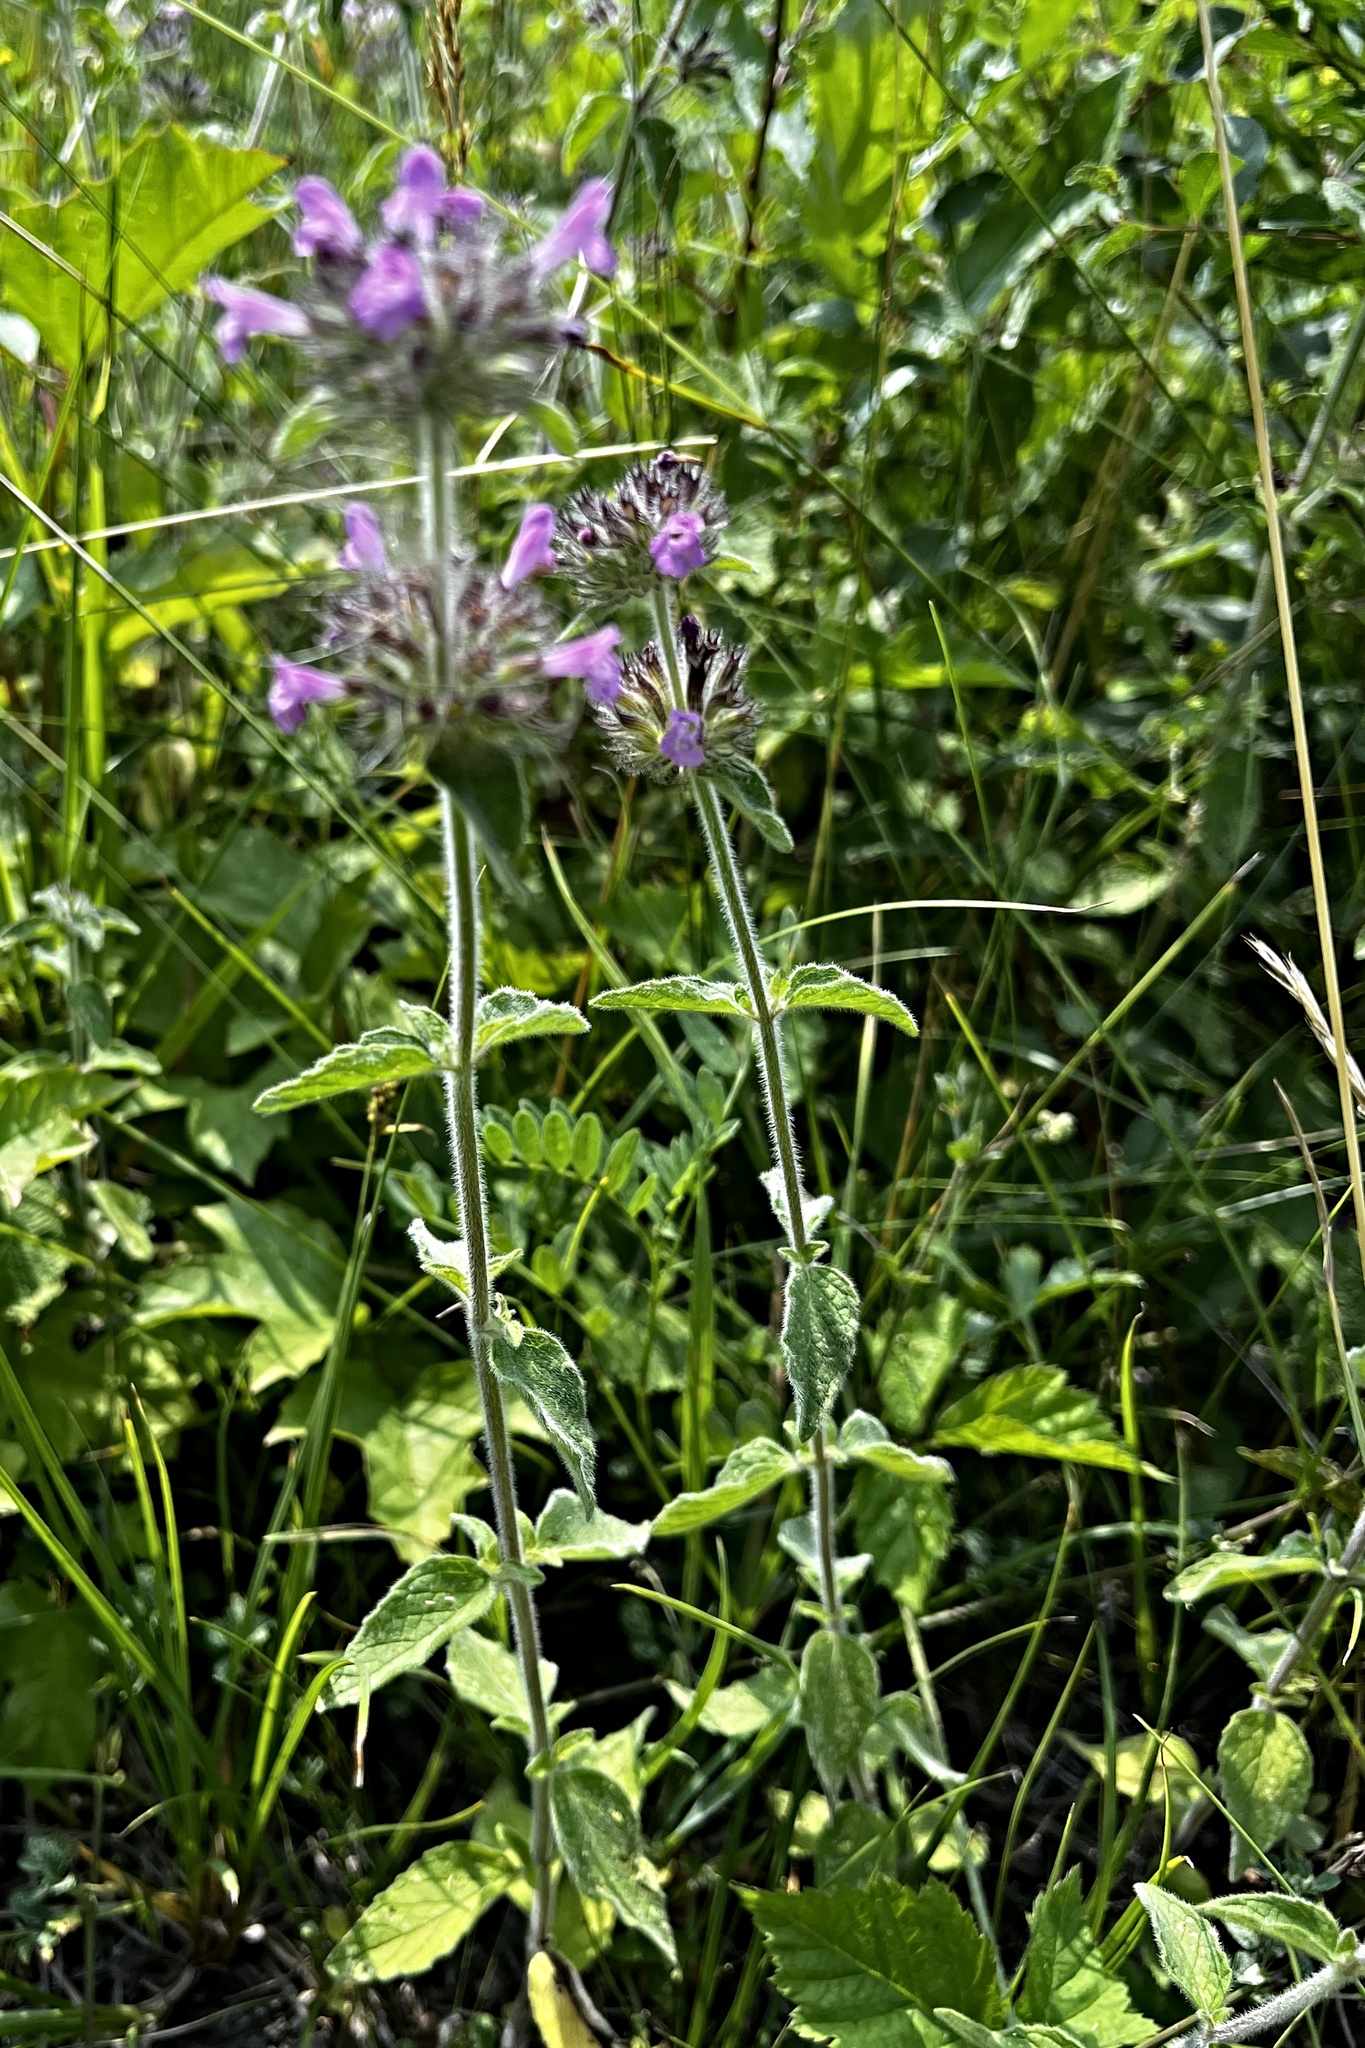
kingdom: Plantae
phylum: Tracheophyta
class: Magnoliopsida
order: Lamiales
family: Lamiaceae
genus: Clinopodium
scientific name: Clinopodium vulgare
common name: Wild basil
